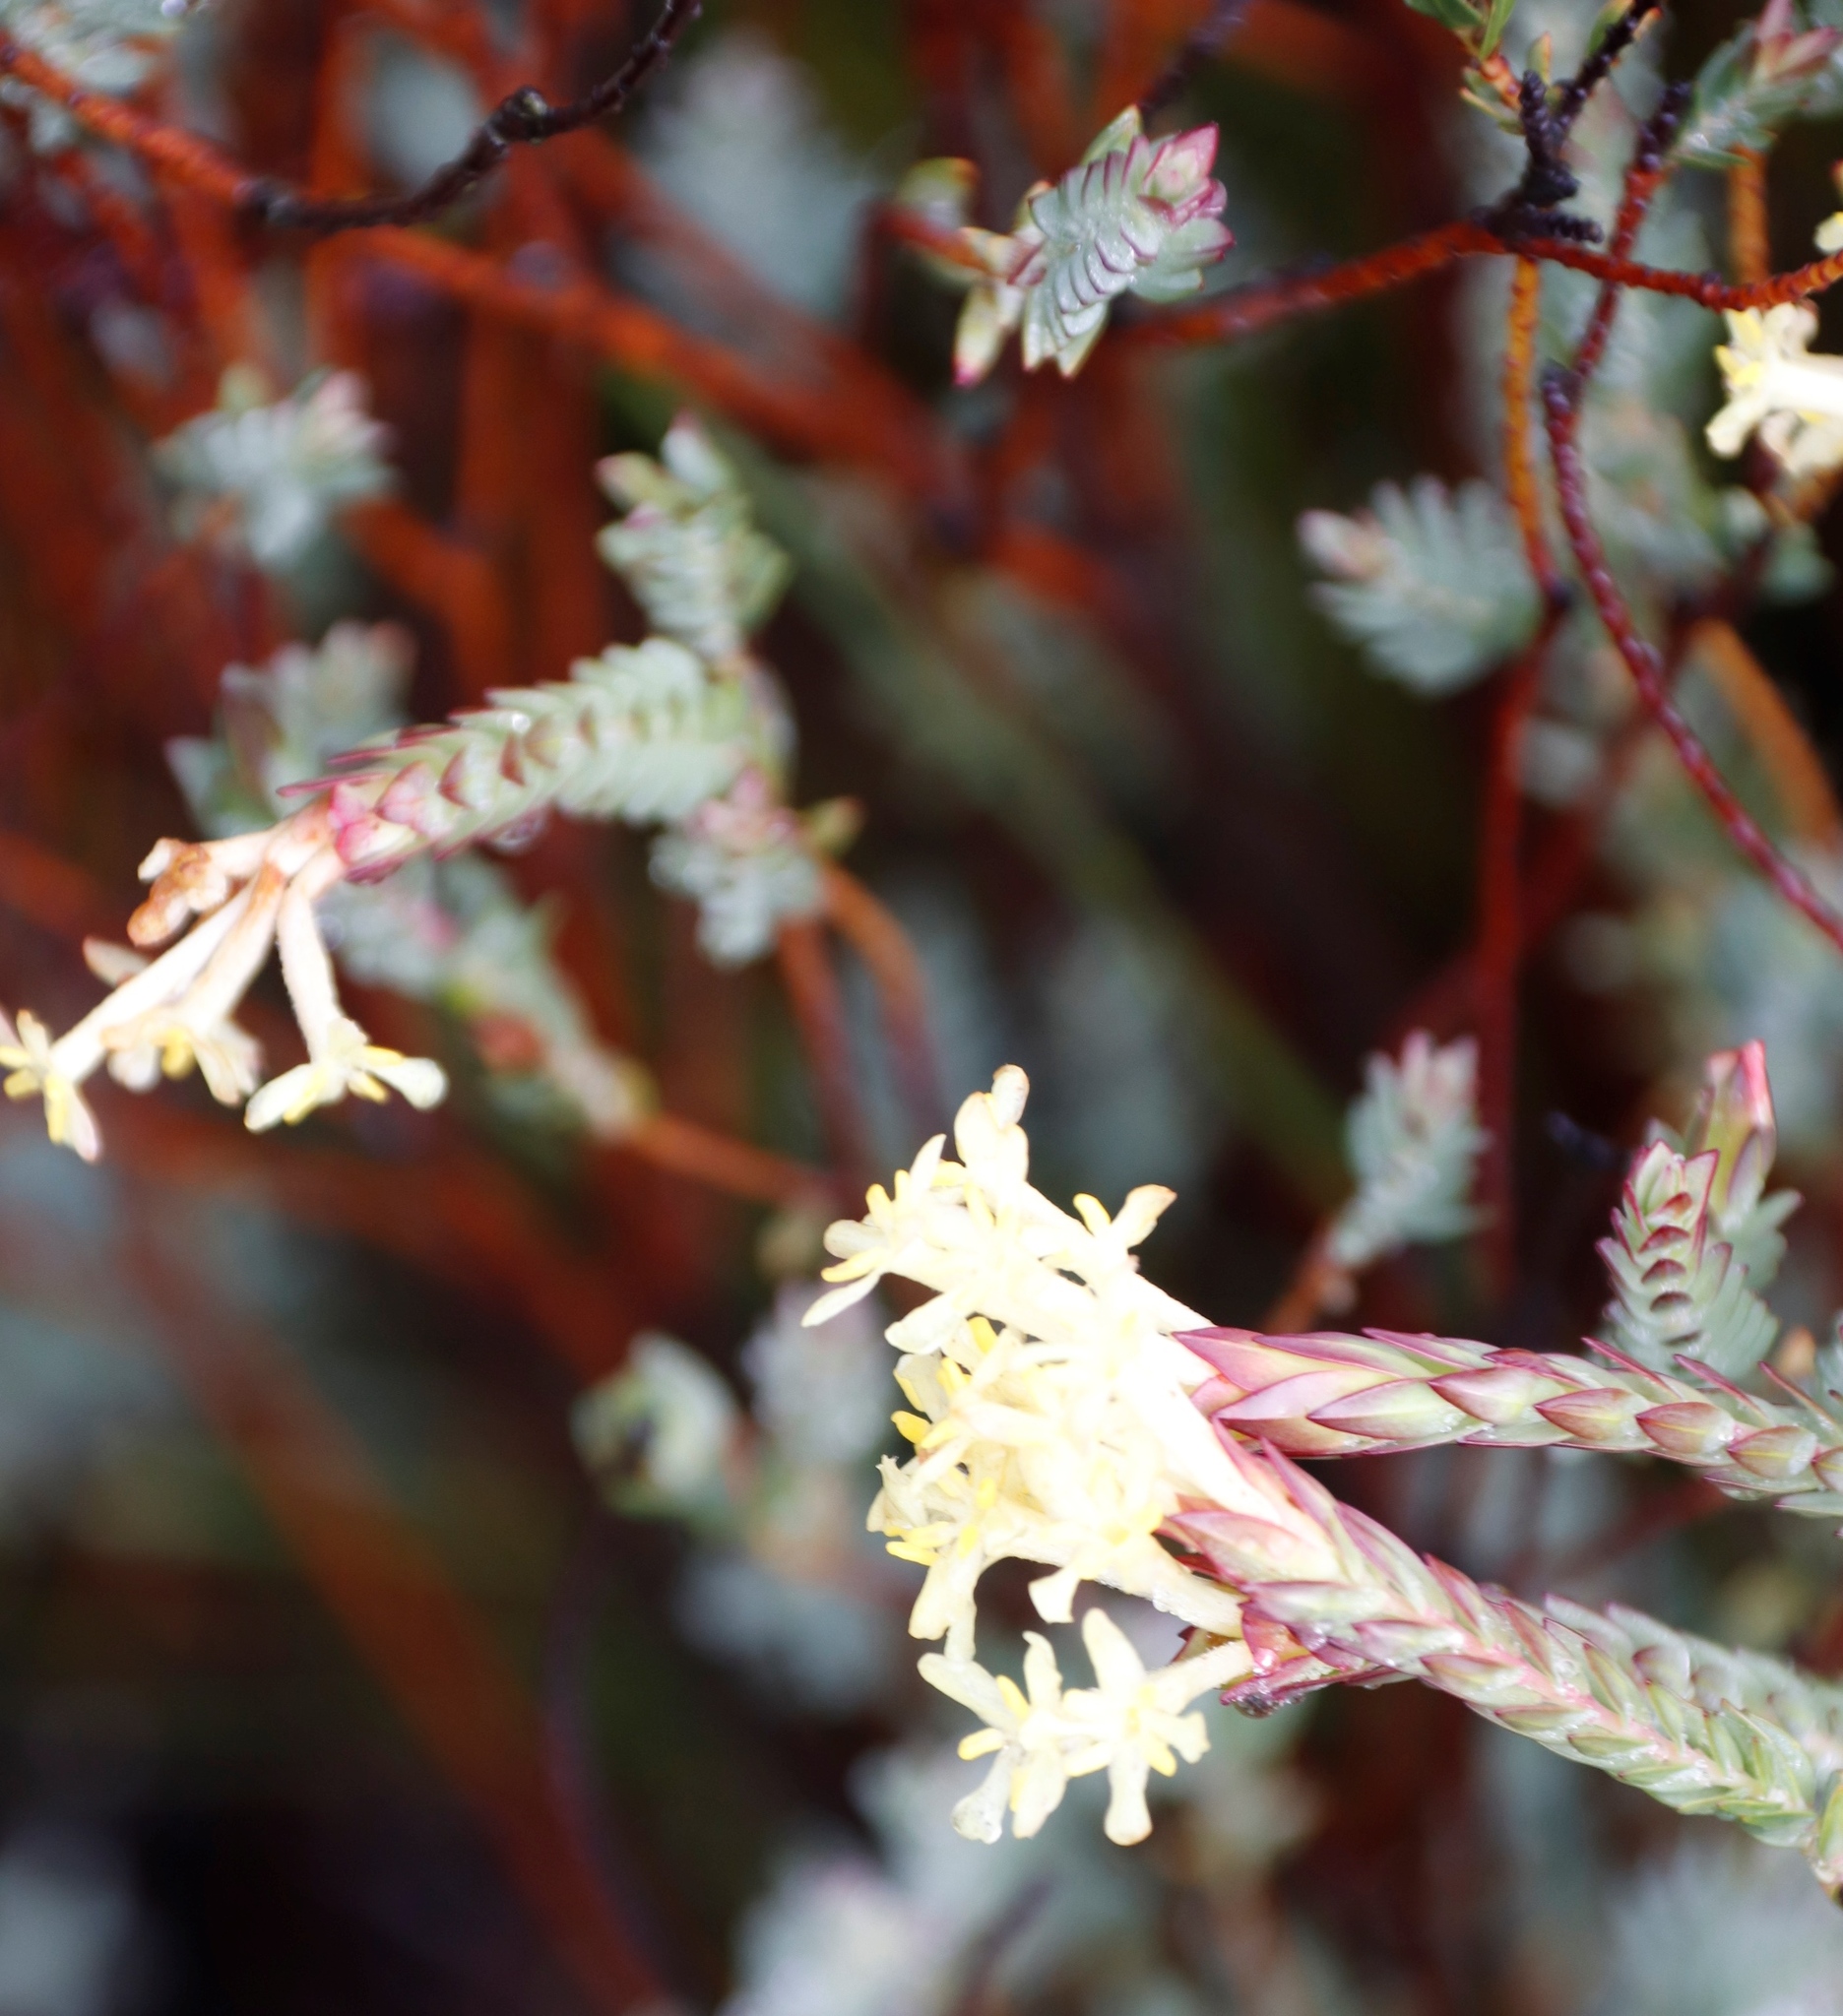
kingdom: Plantae
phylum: Tracheophyta
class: Magnoliopsida
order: Malvales
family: Thymelaeaceae
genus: Gnidia
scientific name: Gnidia oppositifolia
